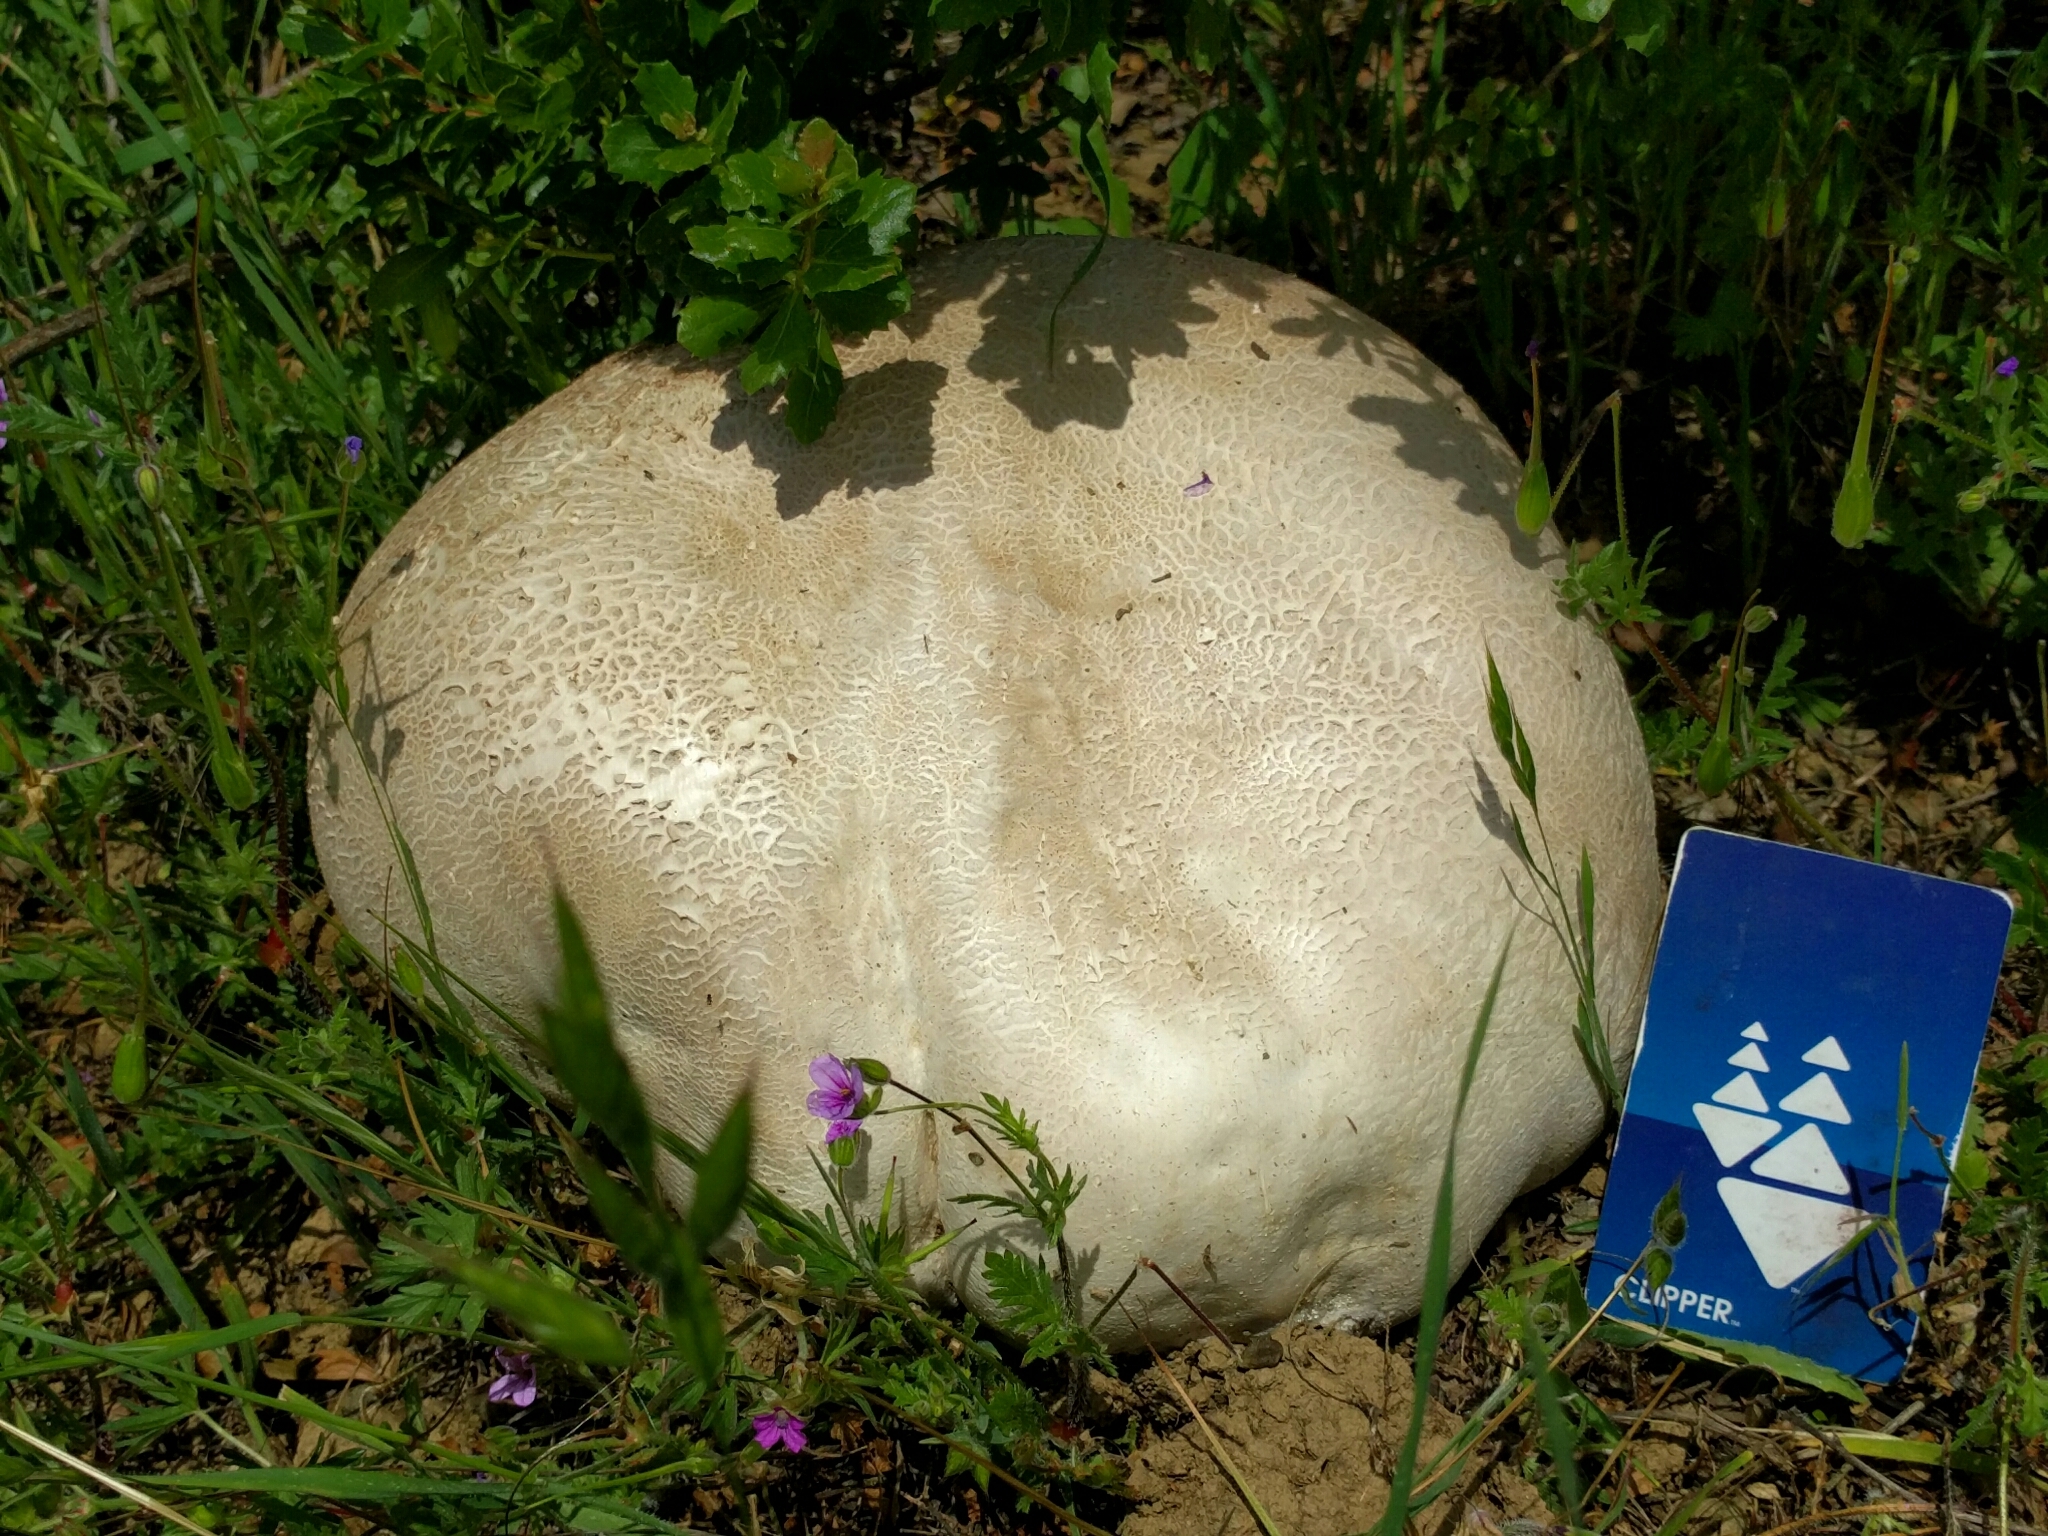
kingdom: Fungi
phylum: Basidiomycota
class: Agaricomycetes
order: Agaricales
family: Lycoperdaceae
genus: Langermannia
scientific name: Langermannia pachyderma
